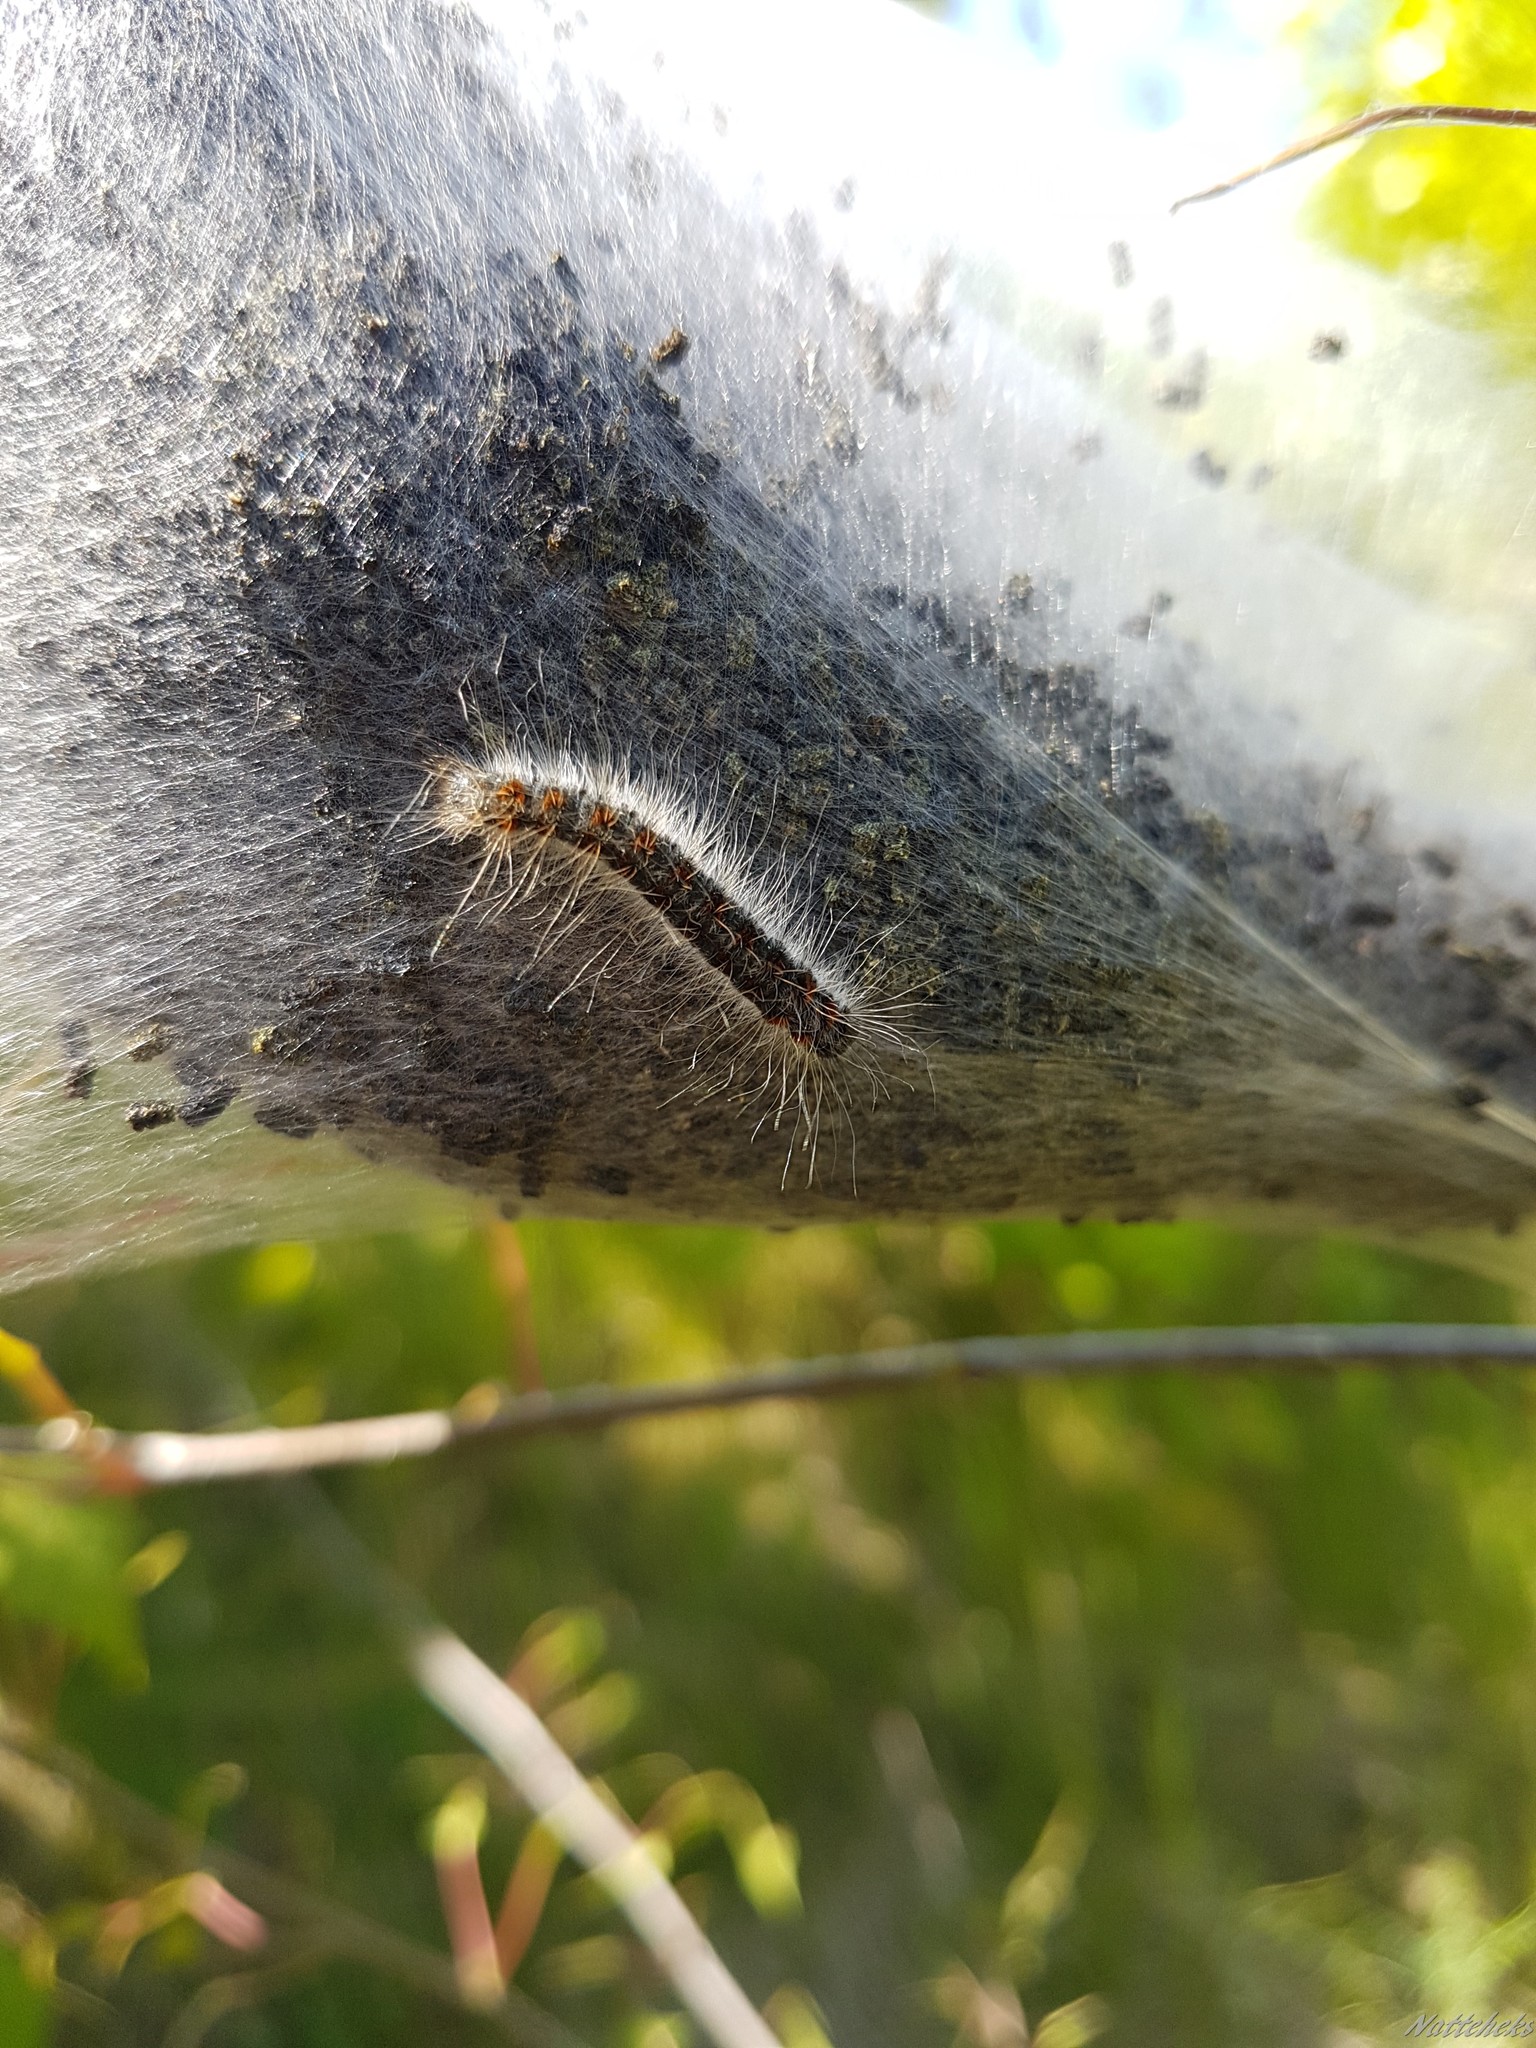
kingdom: Animalia
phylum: Arthropoda
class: Insecta
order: Lepidoptera
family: Lasiocampidae
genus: Eriogaster
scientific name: Eriogaster lanestris
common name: Small eggar
